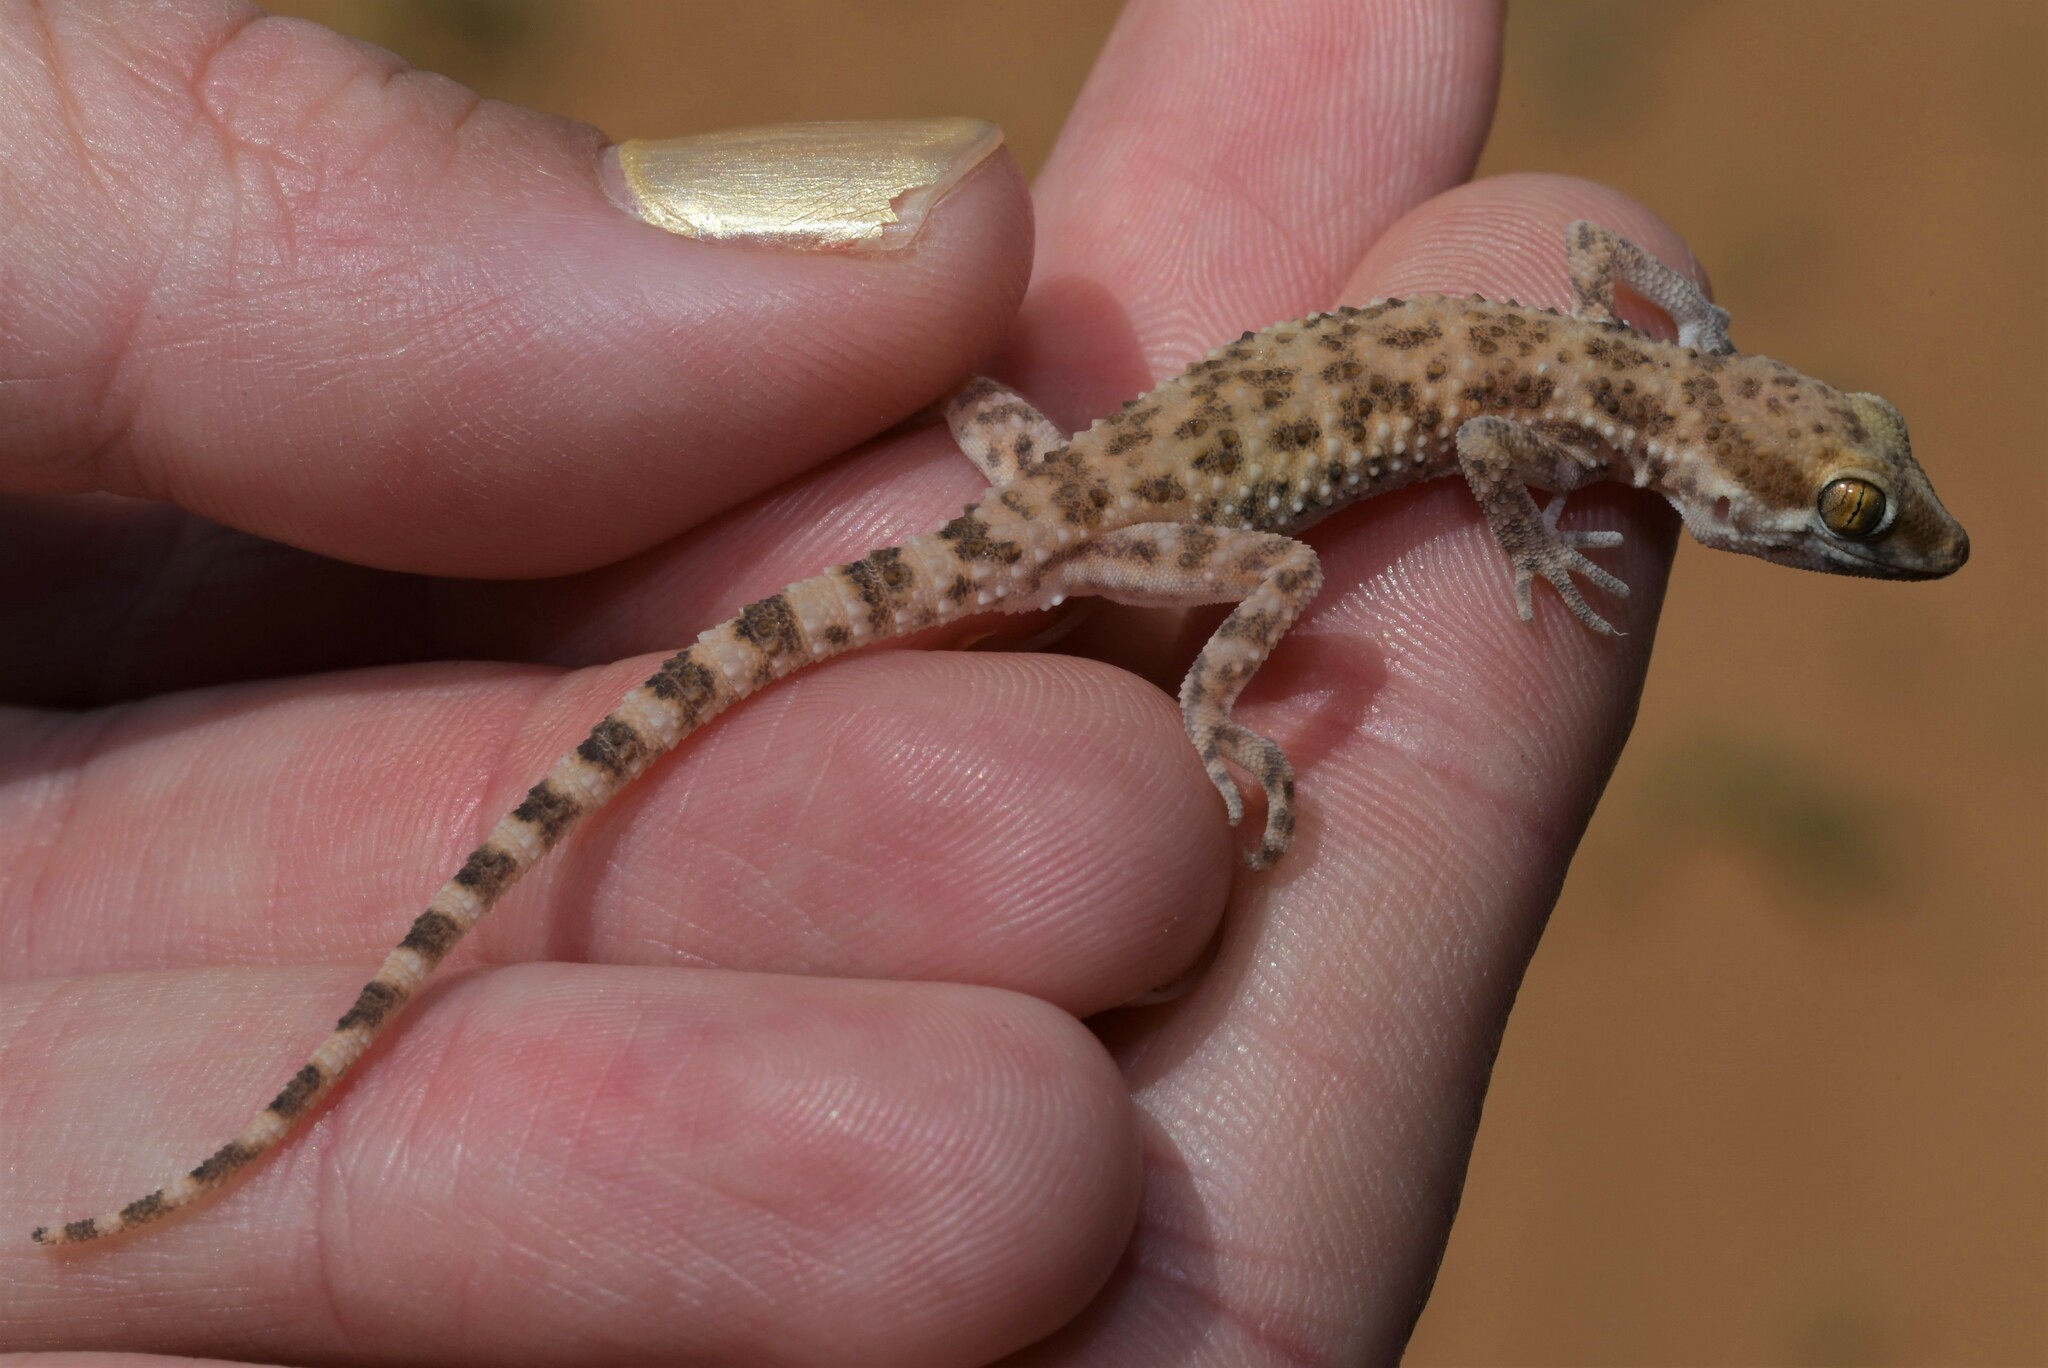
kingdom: Animalia
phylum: Chordata
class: Squamata
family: Gekkonidae
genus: Bunopus
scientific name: Bunopus tuberculatus
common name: Southern tuberculated gecko
